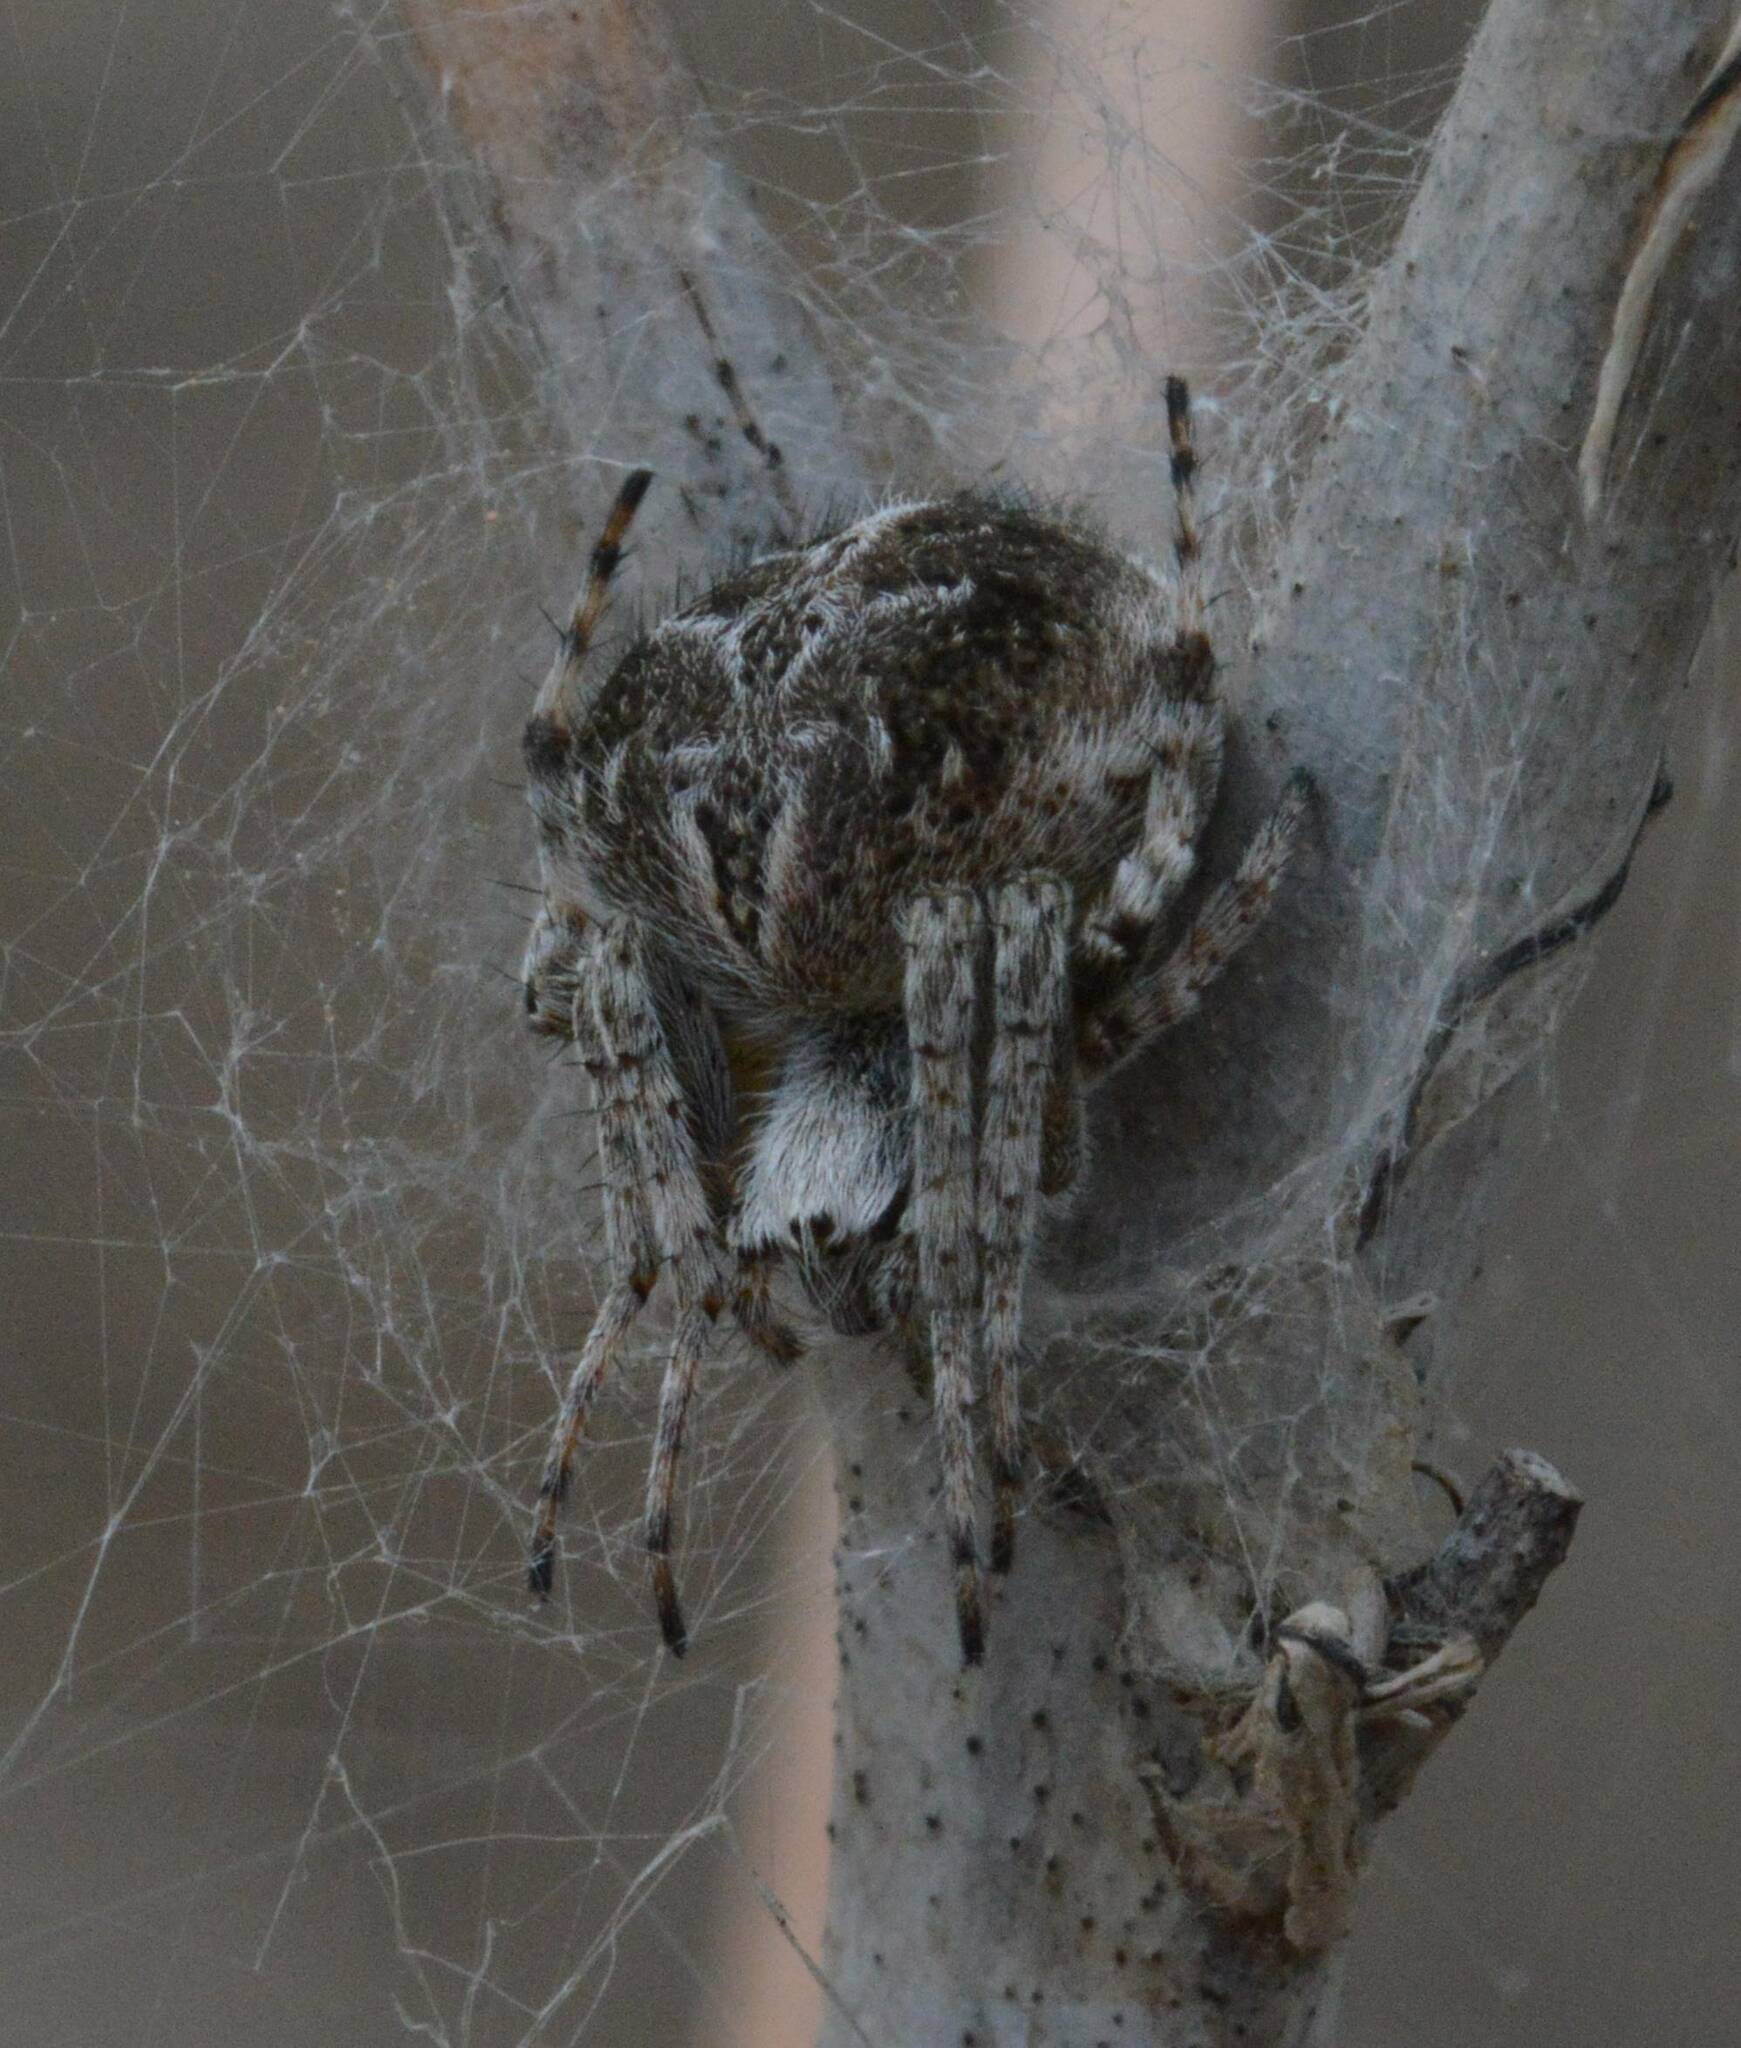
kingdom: Animalia
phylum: Arthropoda
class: Arachnida
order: Araneae
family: Araneidae
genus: Agalenatea
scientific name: Agalenatea redii
